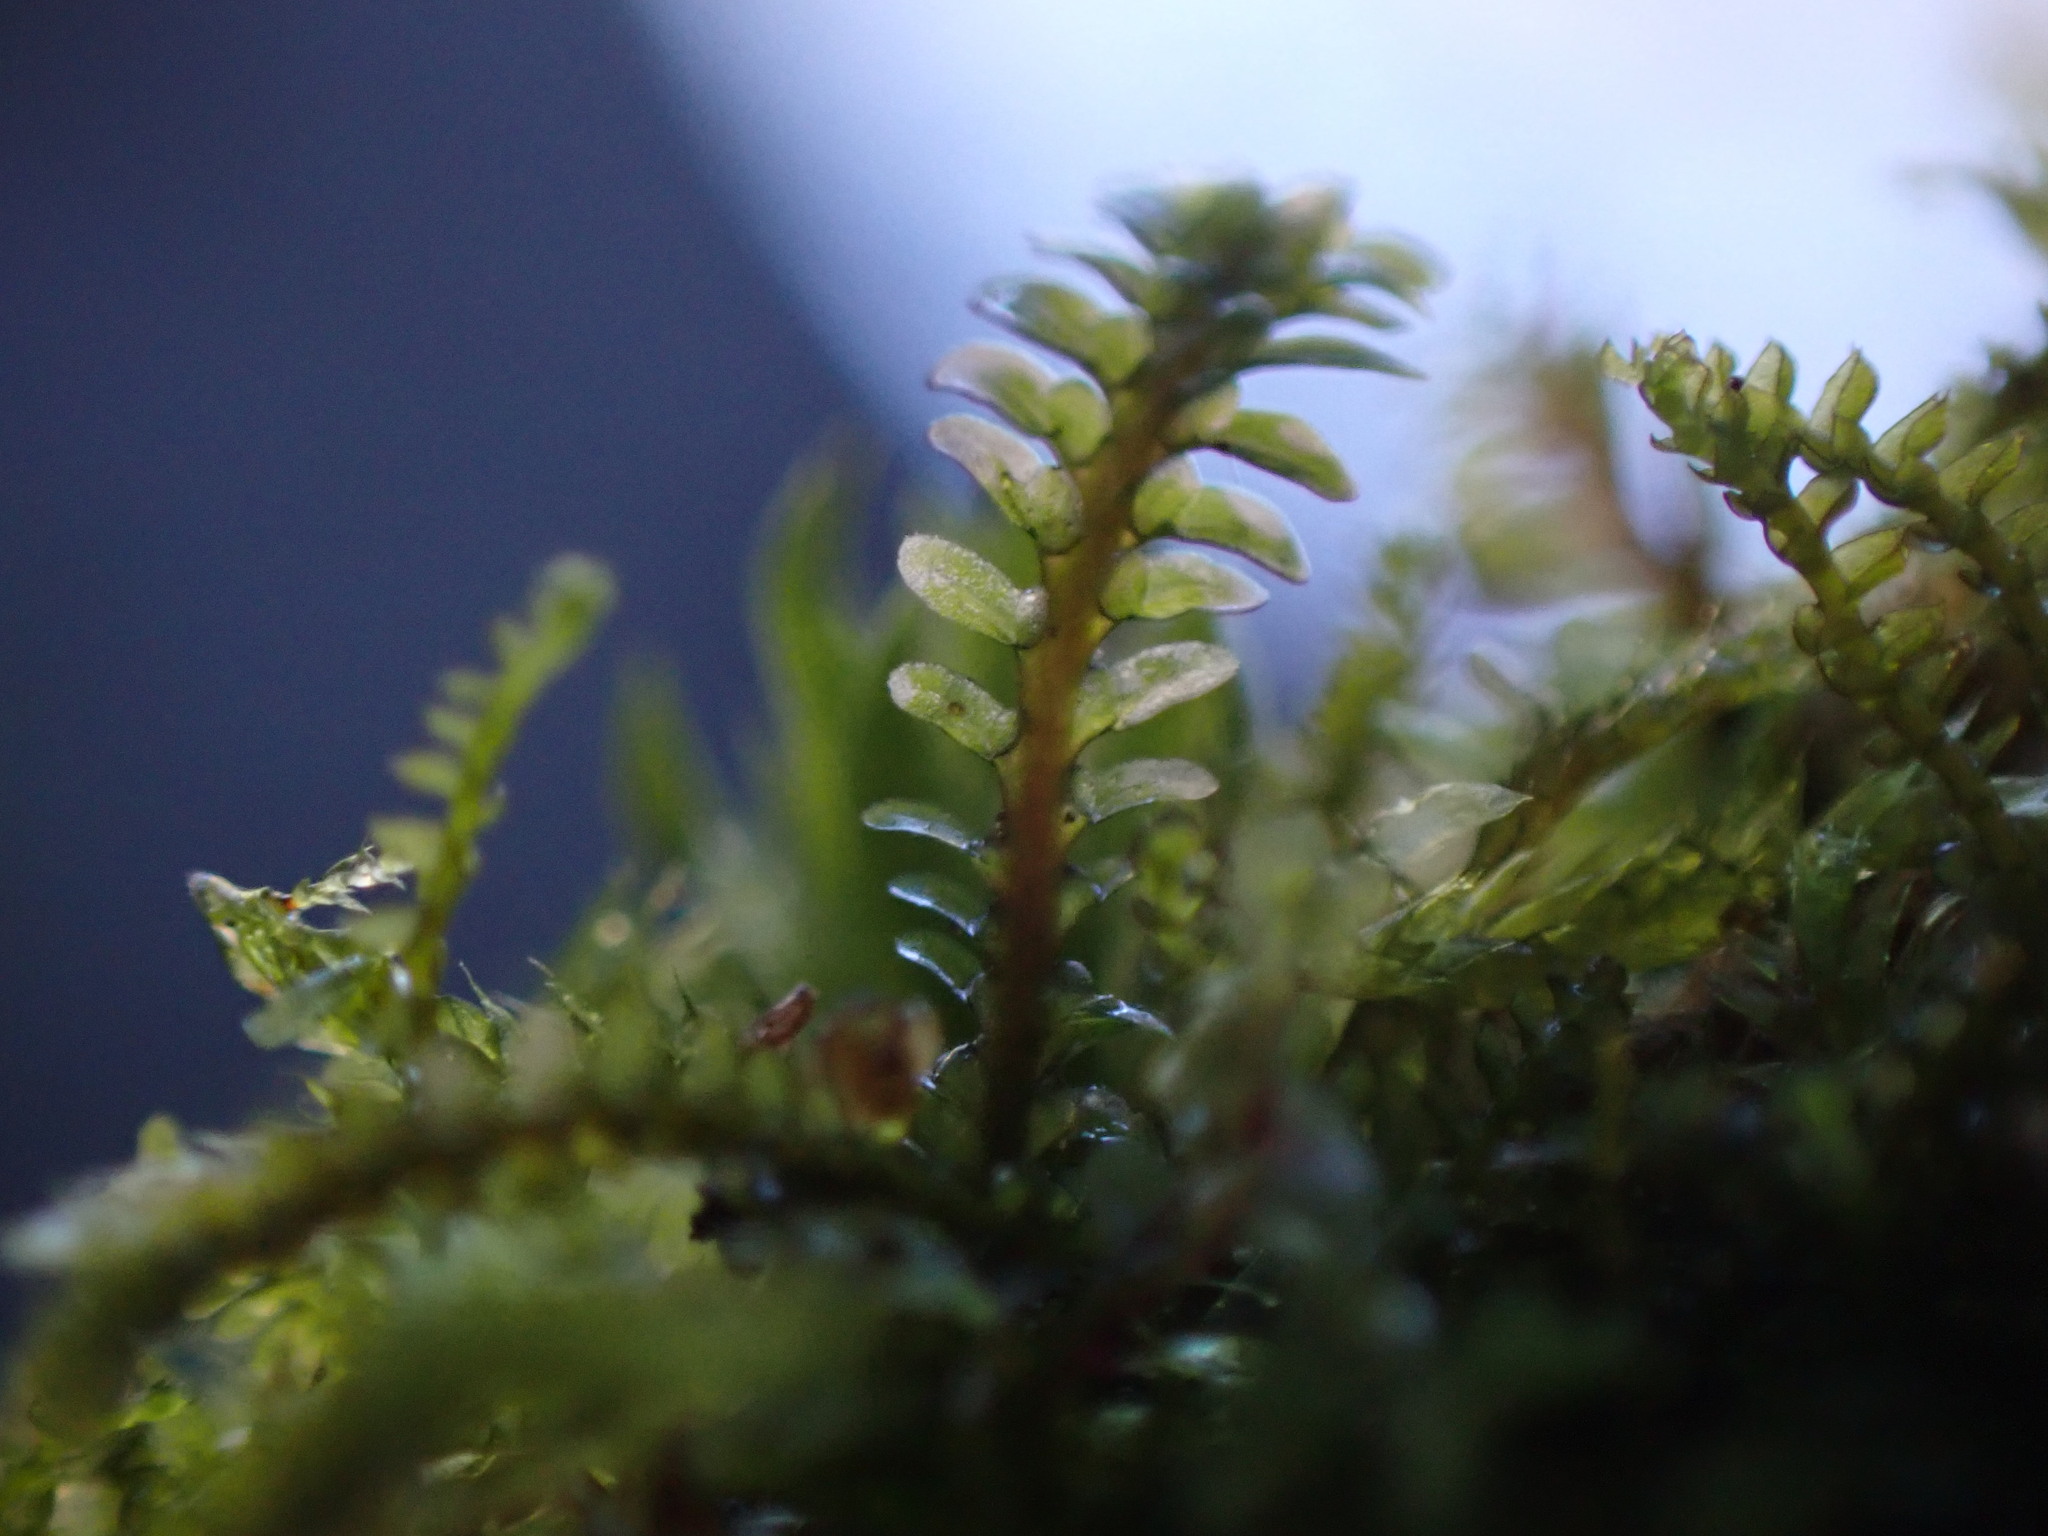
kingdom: Plantae
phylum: Marchantiophyta
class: Jungermanniopsida
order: Jungermanniales
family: Scapaniaceae
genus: Diplophyllum
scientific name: Diplophyllum albicans
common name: White earwort
